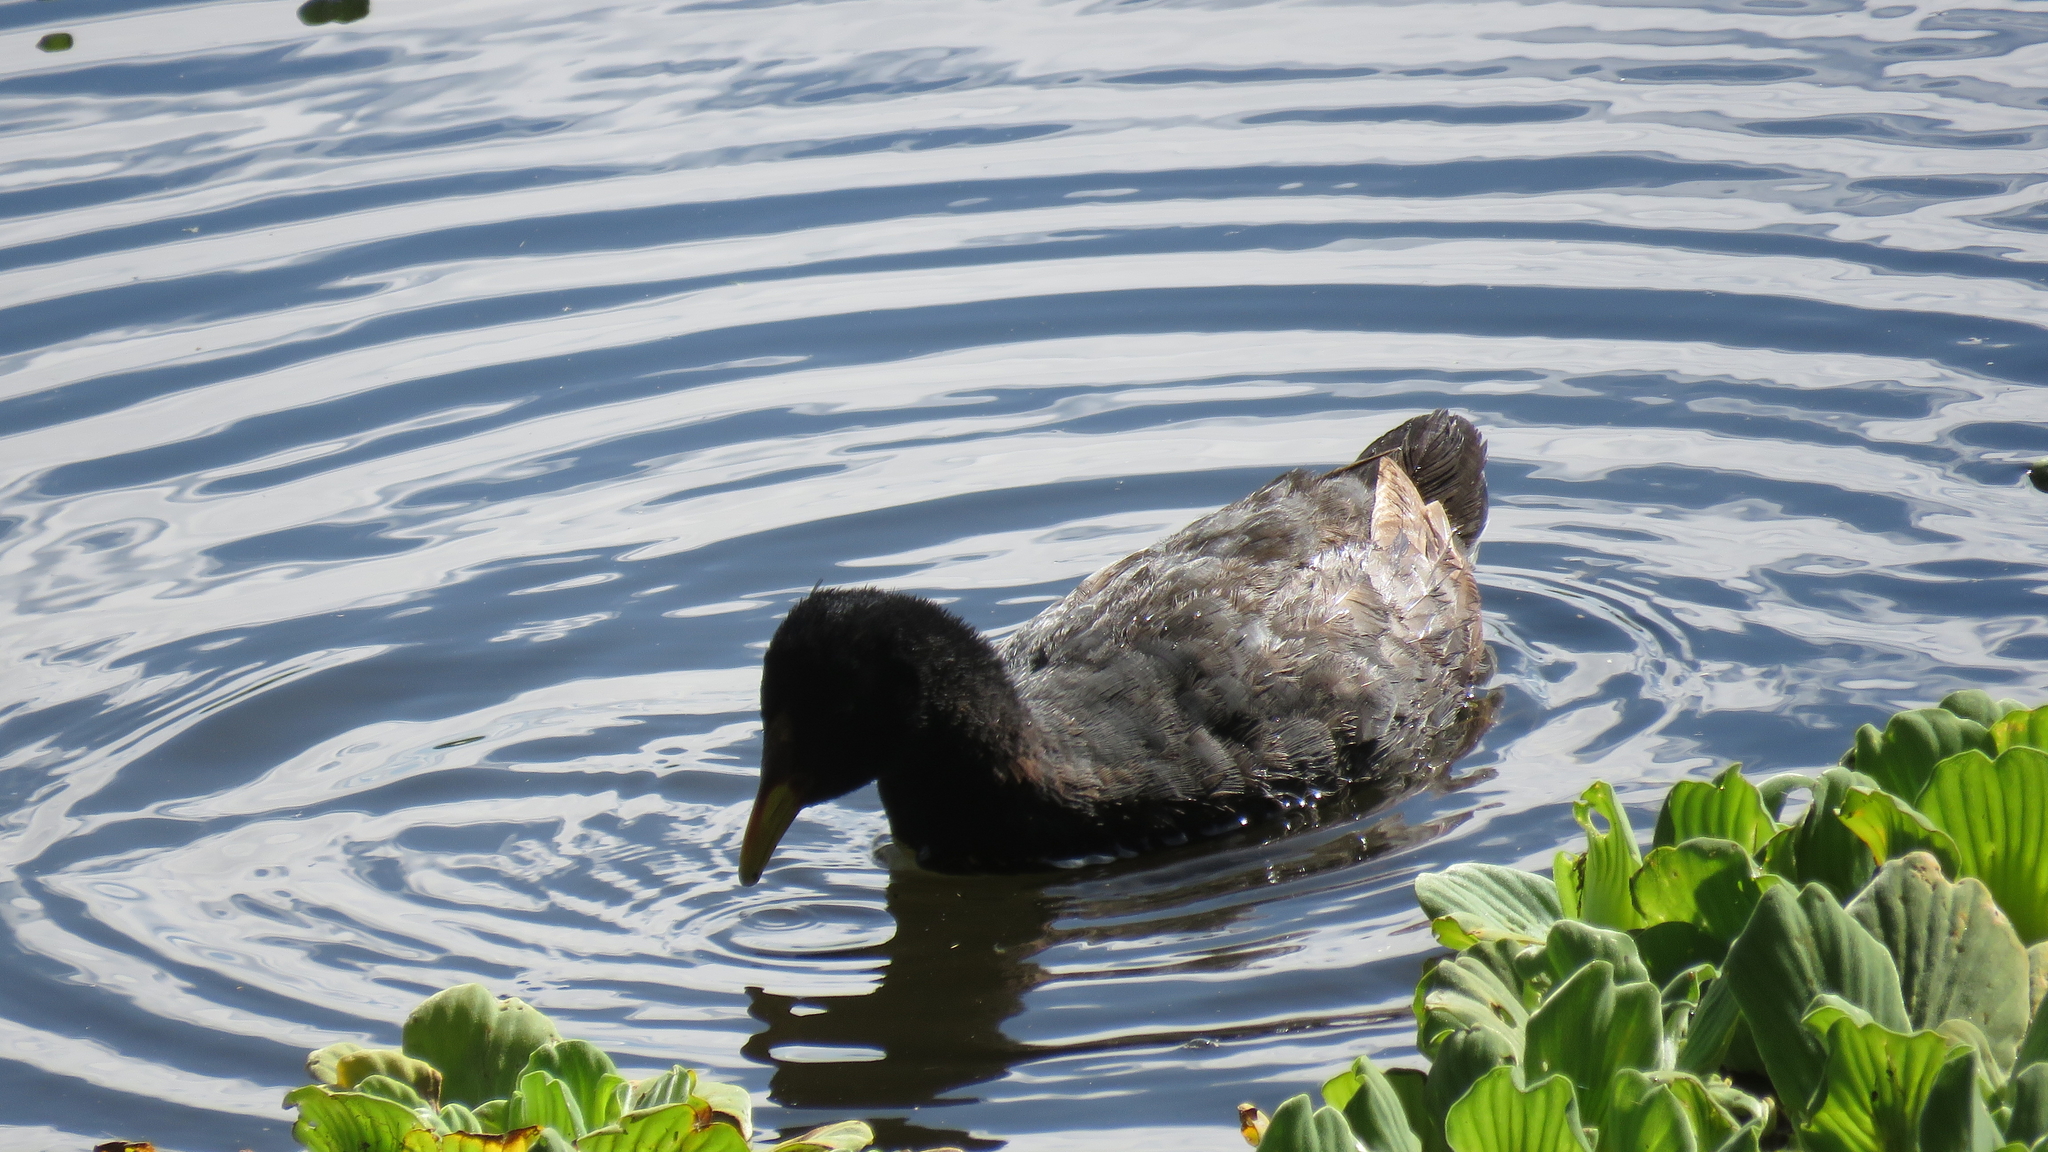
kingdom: Animalia
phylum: Chordata
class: Aves
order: Gruiformes
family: Rallidae
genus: Fulica
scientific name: Fulica rufifrons
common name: Red-fronted coot
